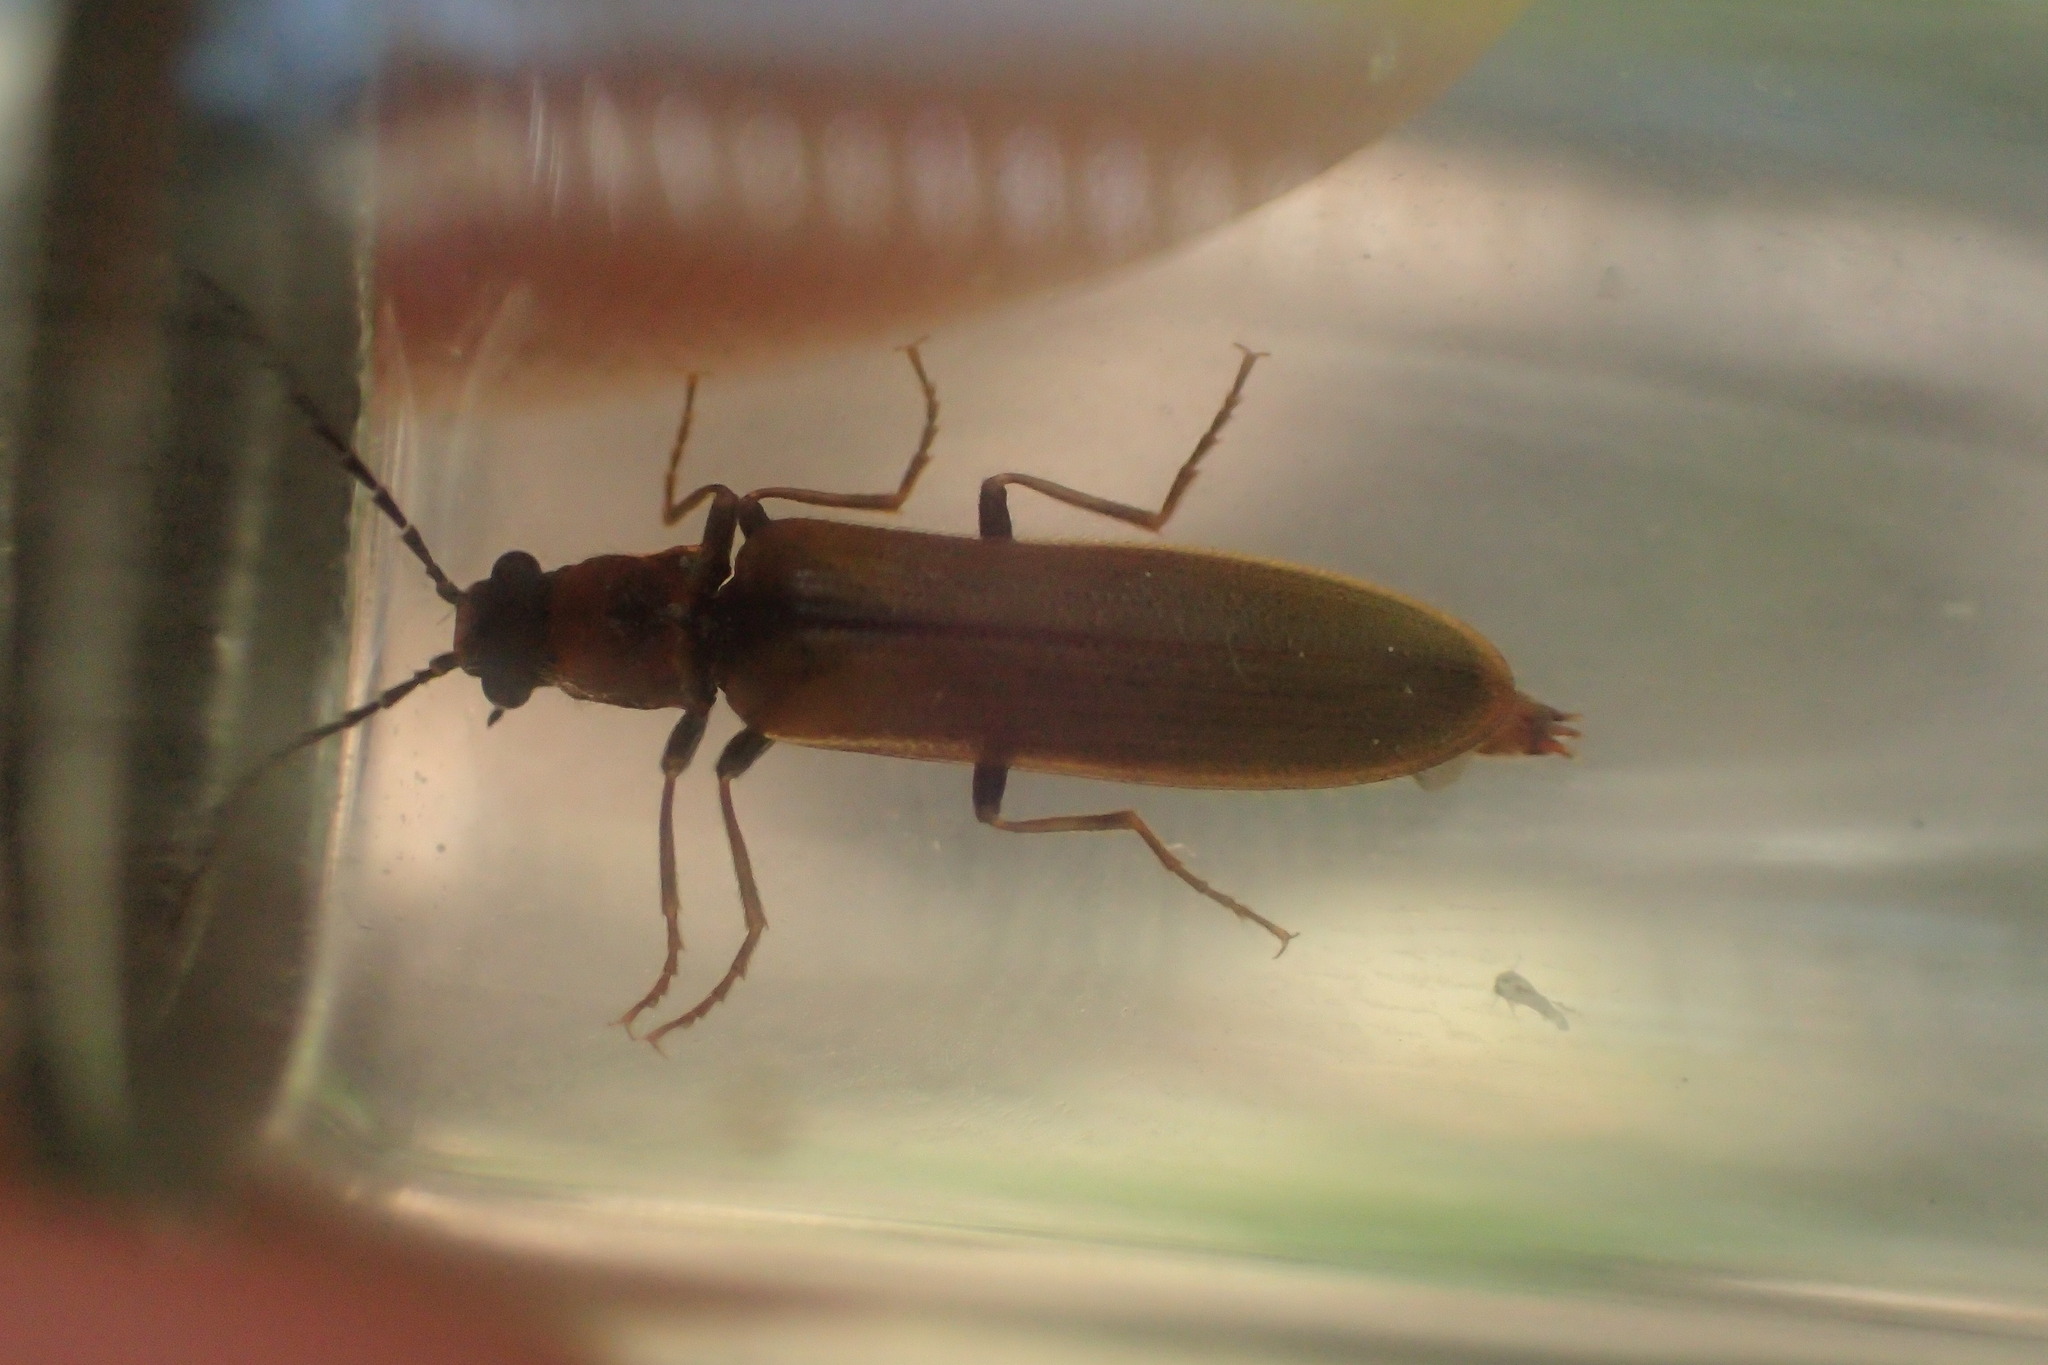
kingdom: Animalia
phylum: Arthropoda
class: Insecta
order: Coleoptera
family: Elateridae
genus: Denticollis
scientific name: Denticollis linearis
